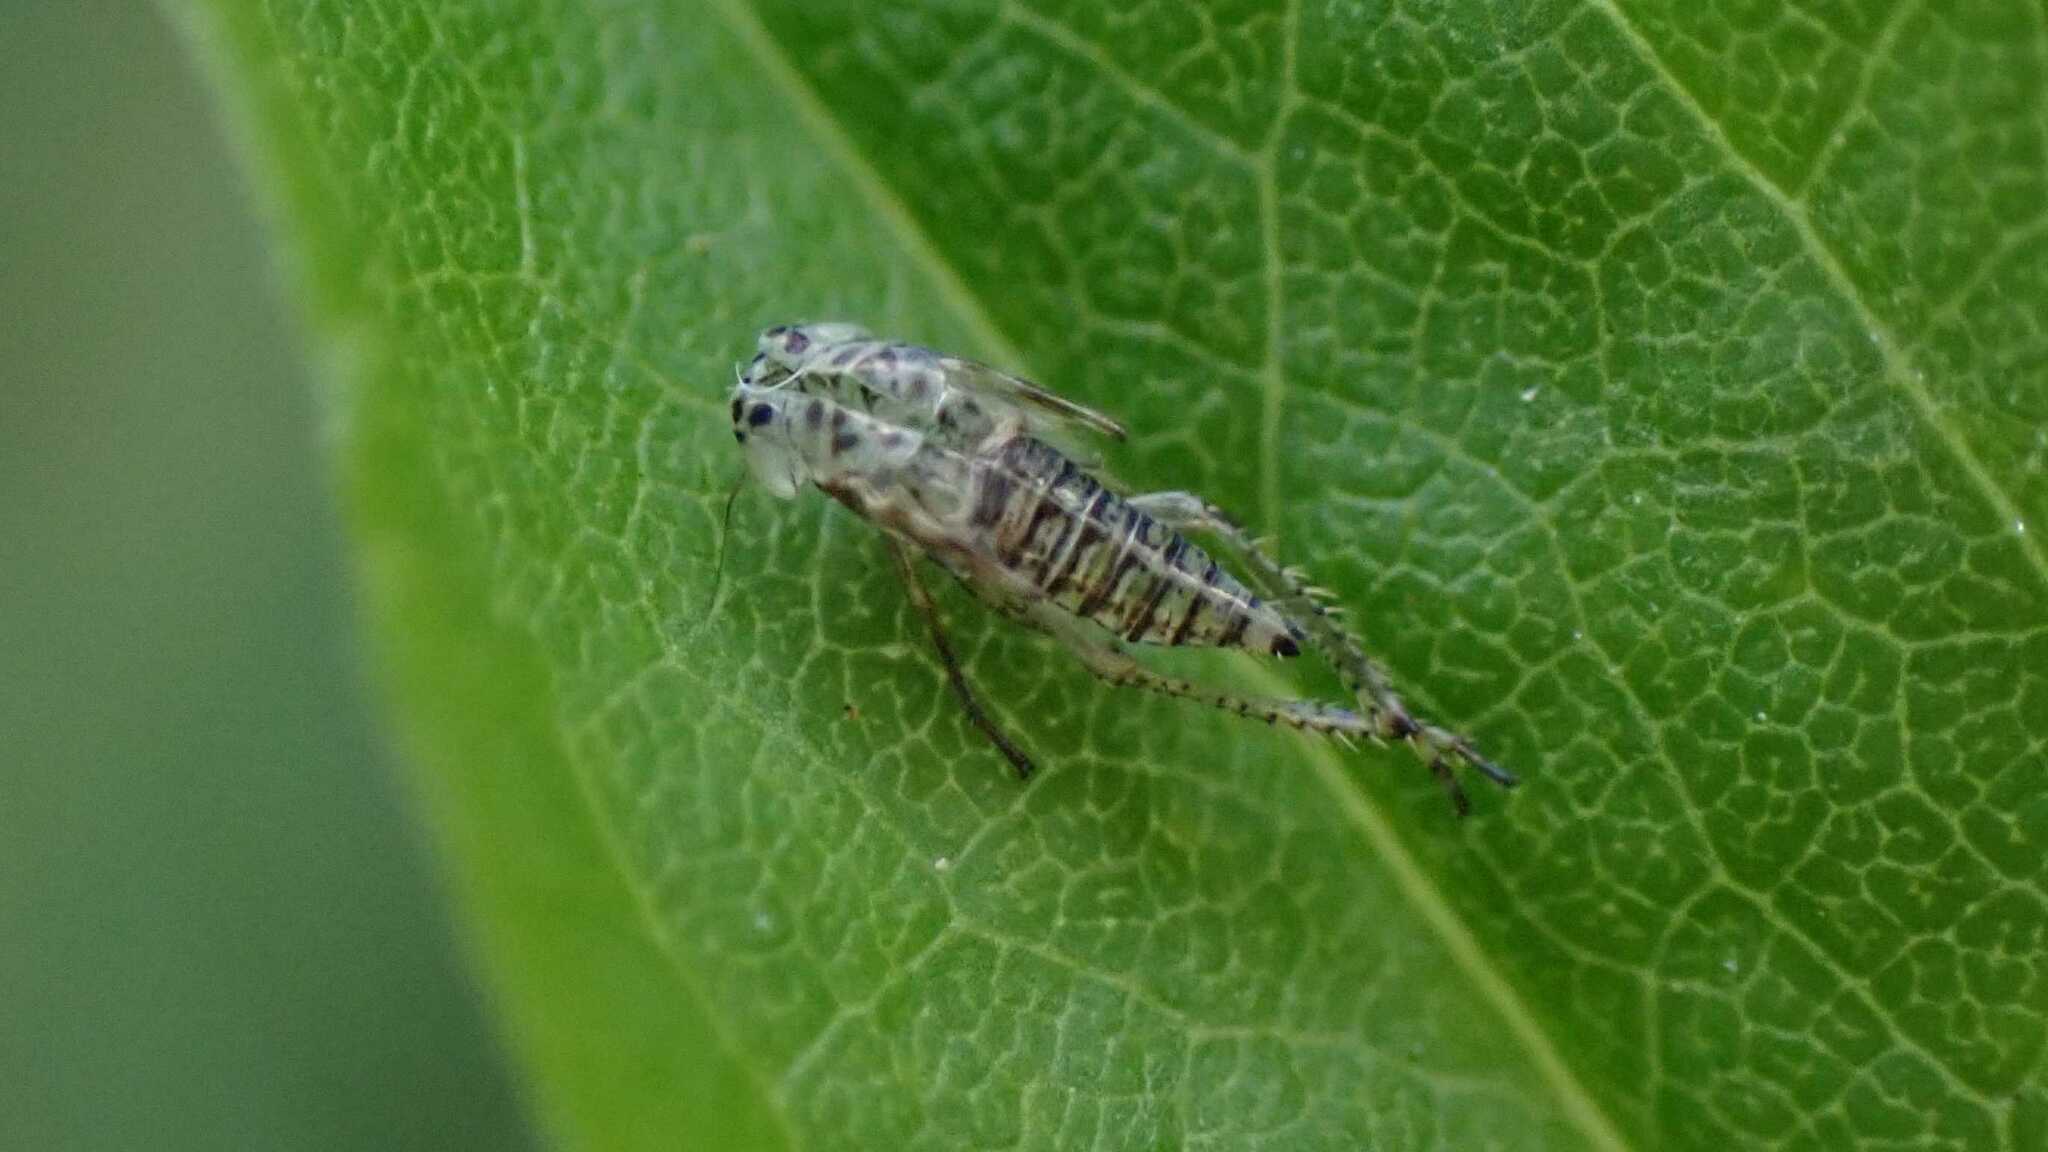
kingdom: Animalia
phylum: Arthropoda
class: Insecta
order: Hemiptera
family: Cicadellidae
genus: Macrosteles
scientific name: Macrosteles
